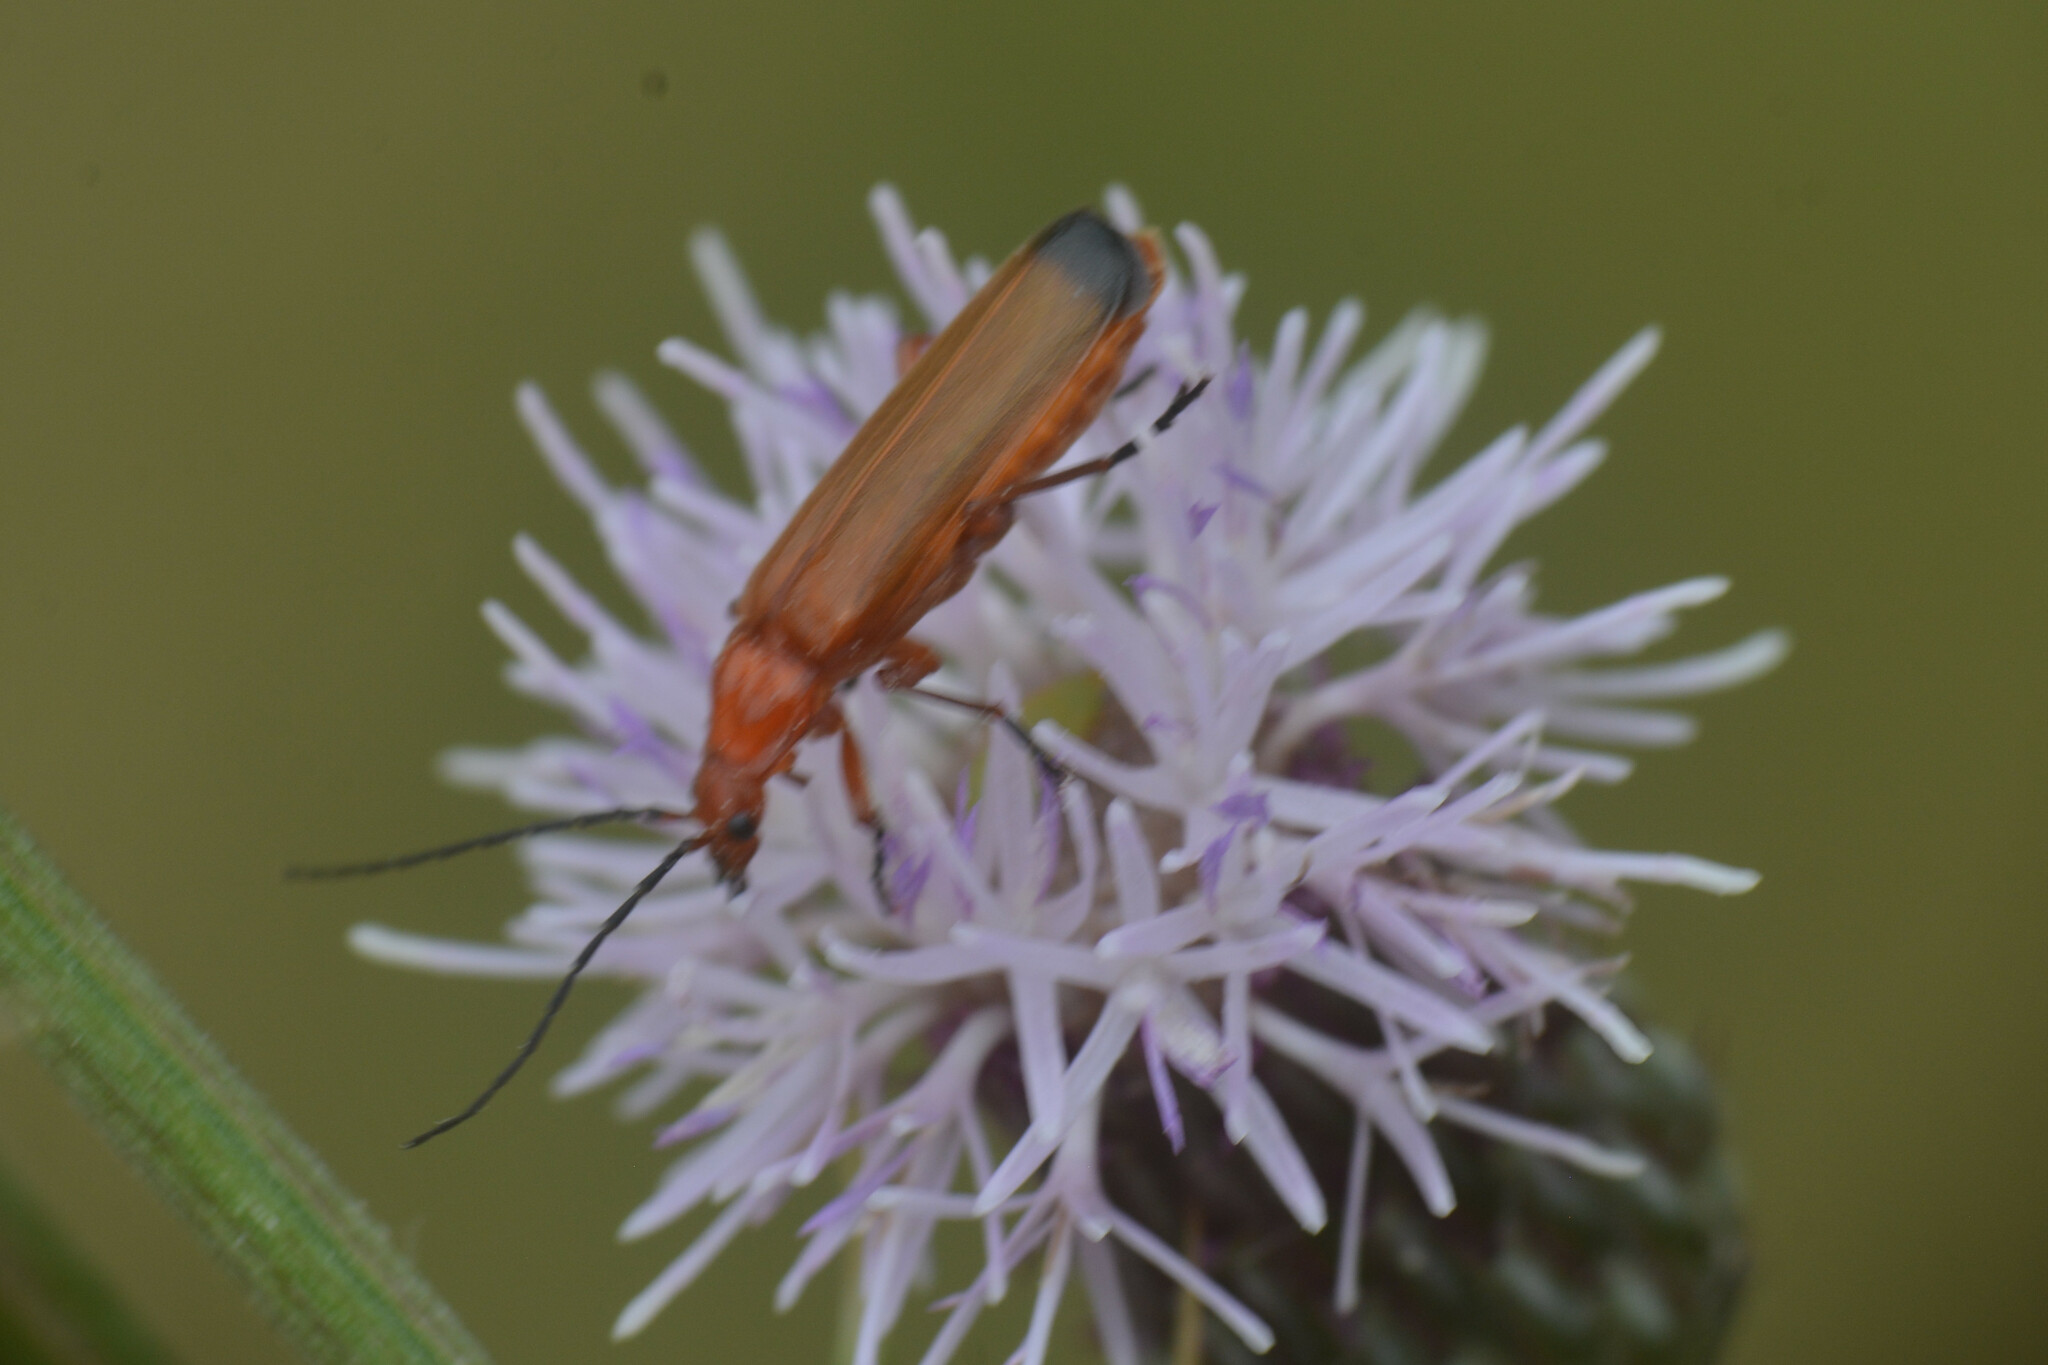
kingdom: Animalia
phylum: Arthropoda
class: Insecta
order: Coleoptera
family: Cantharidae
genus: Rhagonycha
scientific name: Rhagonycha fulva
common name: Common red soldier beetle
